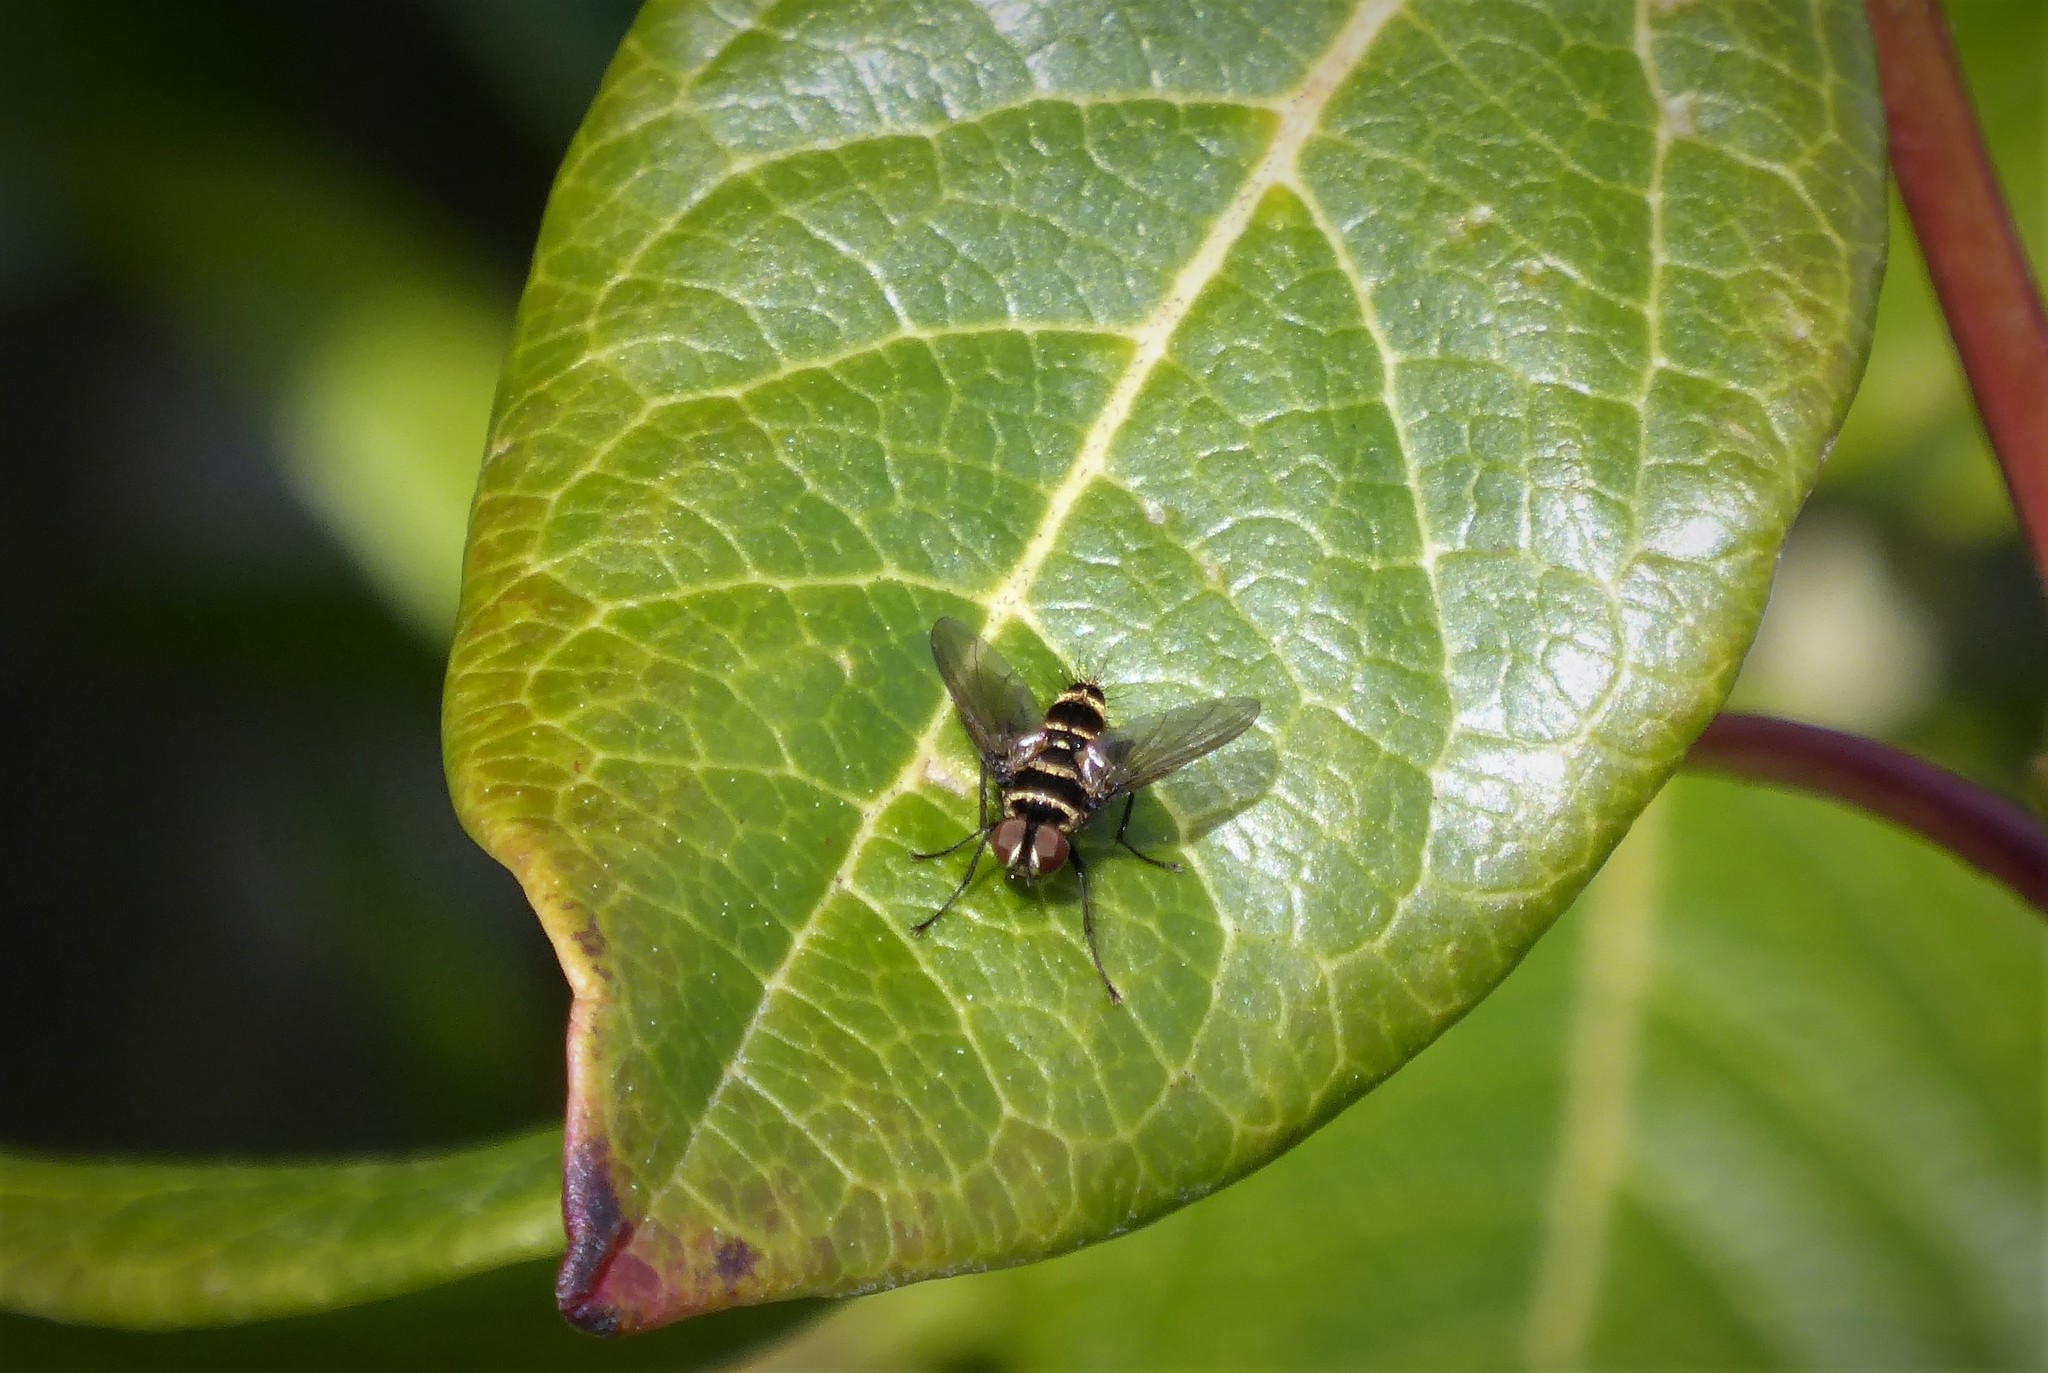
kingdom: Animalia
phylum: Arthropoda
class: Insecta
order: Diptera
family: Tachinidae
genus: Trigonospila
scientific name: Trigonospila brevifacies
